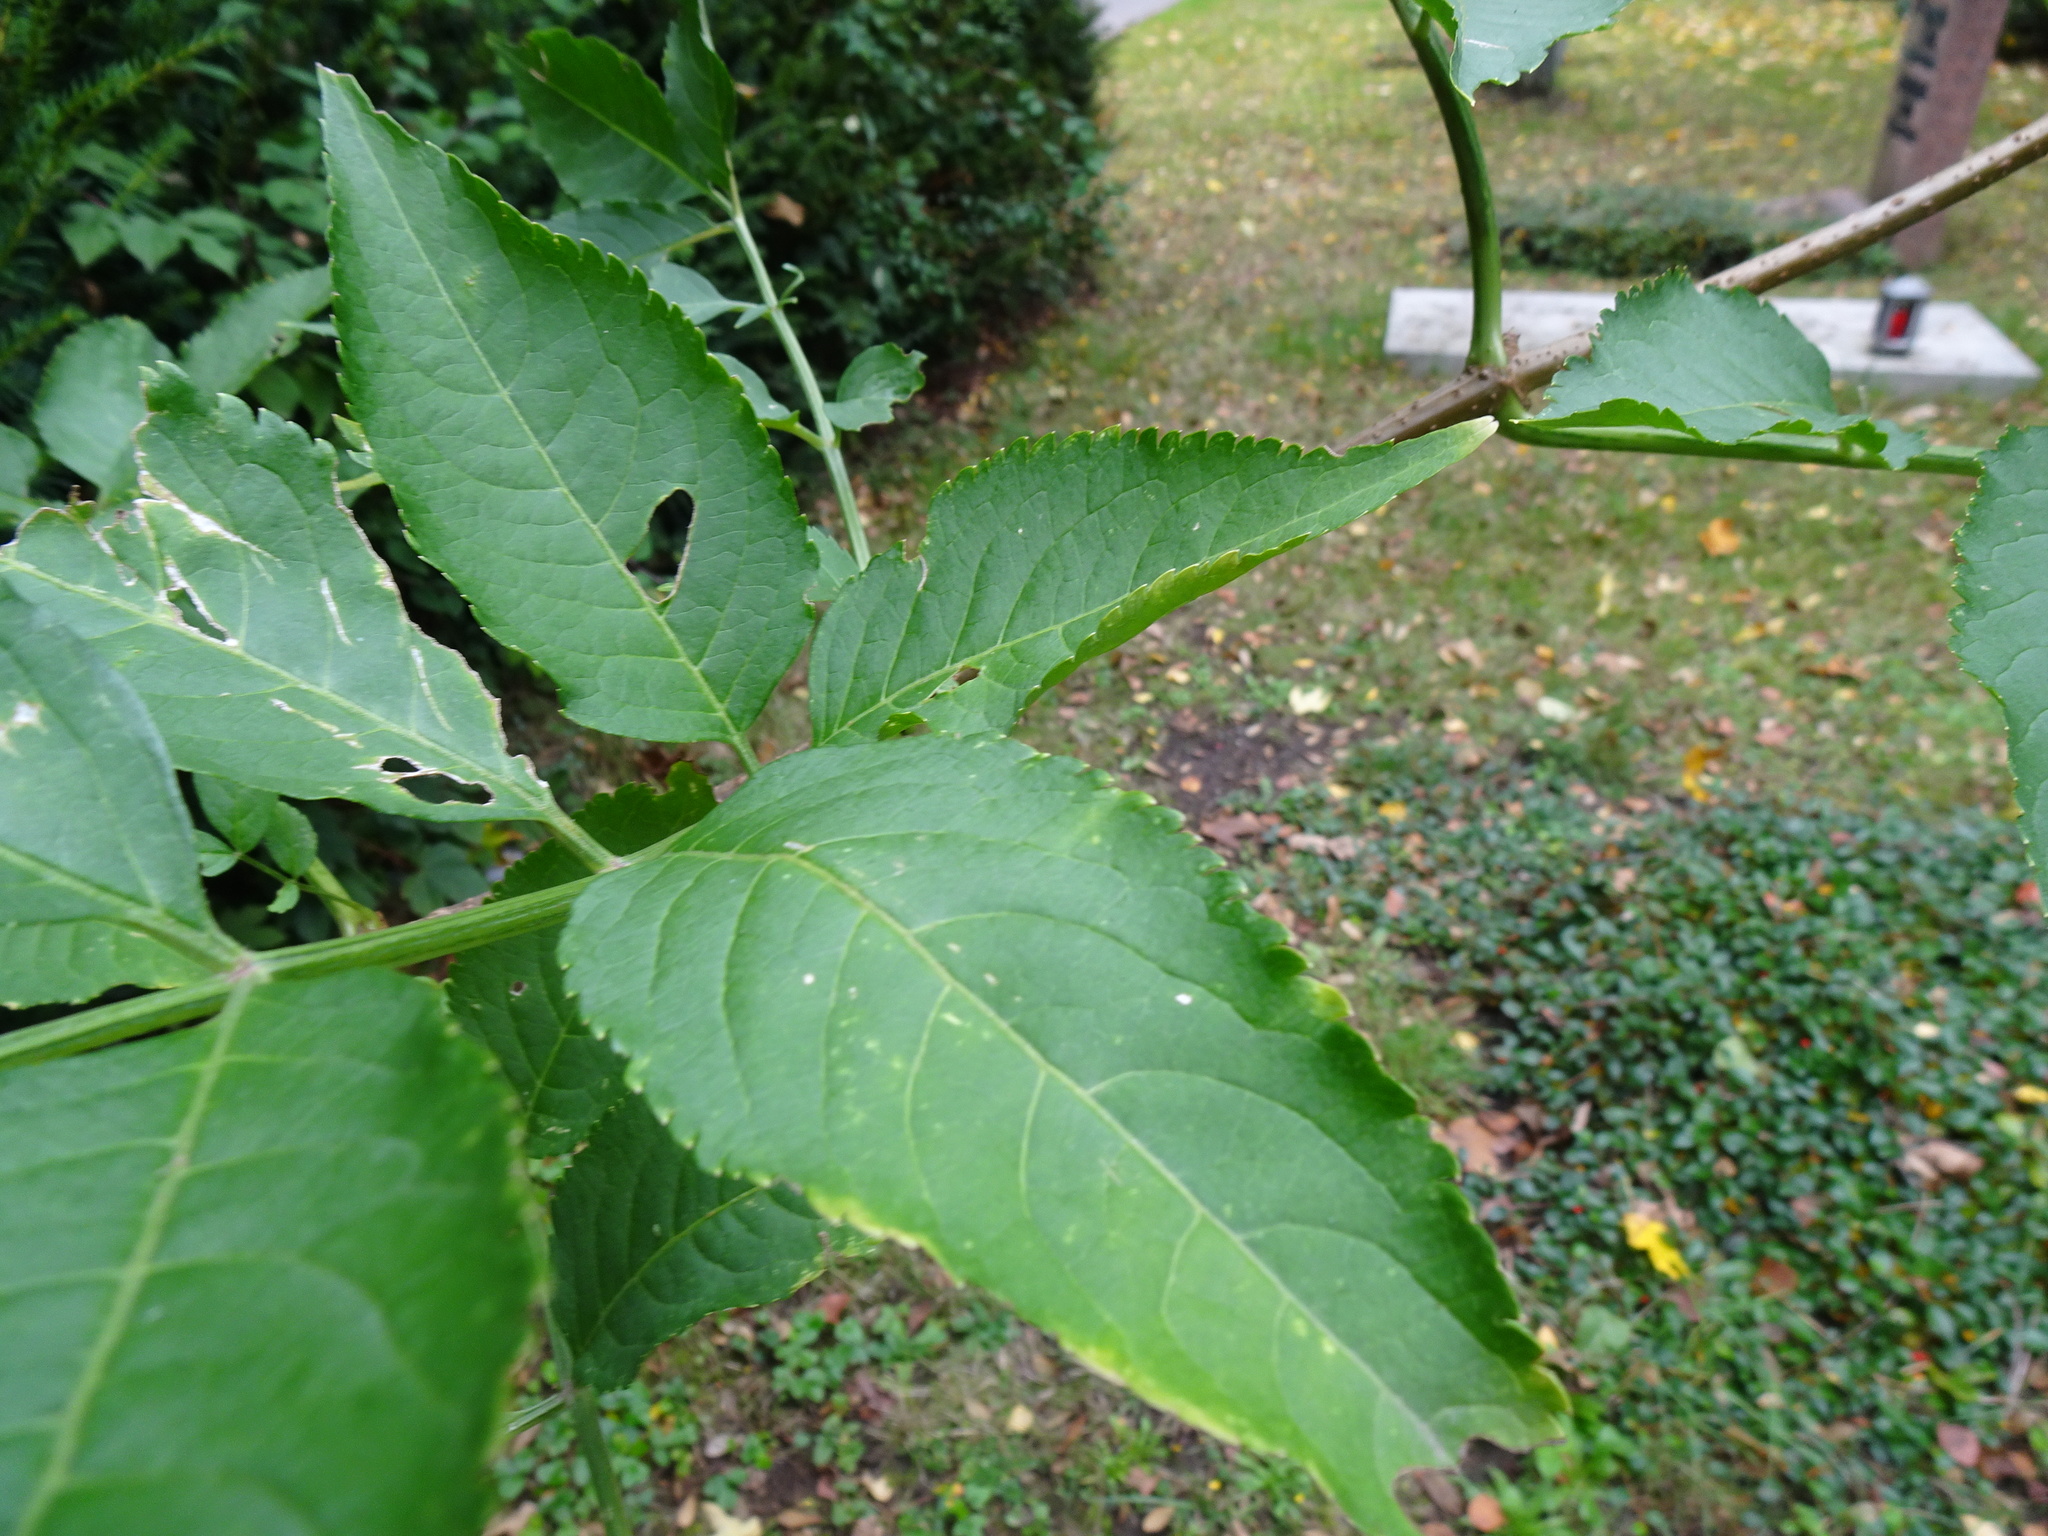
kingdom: Plantae
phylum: Tracheophyta
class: Magnoliopsida
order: Dipsacales
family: Viburnaceae
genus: Sambucus
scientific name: Sambucus nigra
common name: Elder
